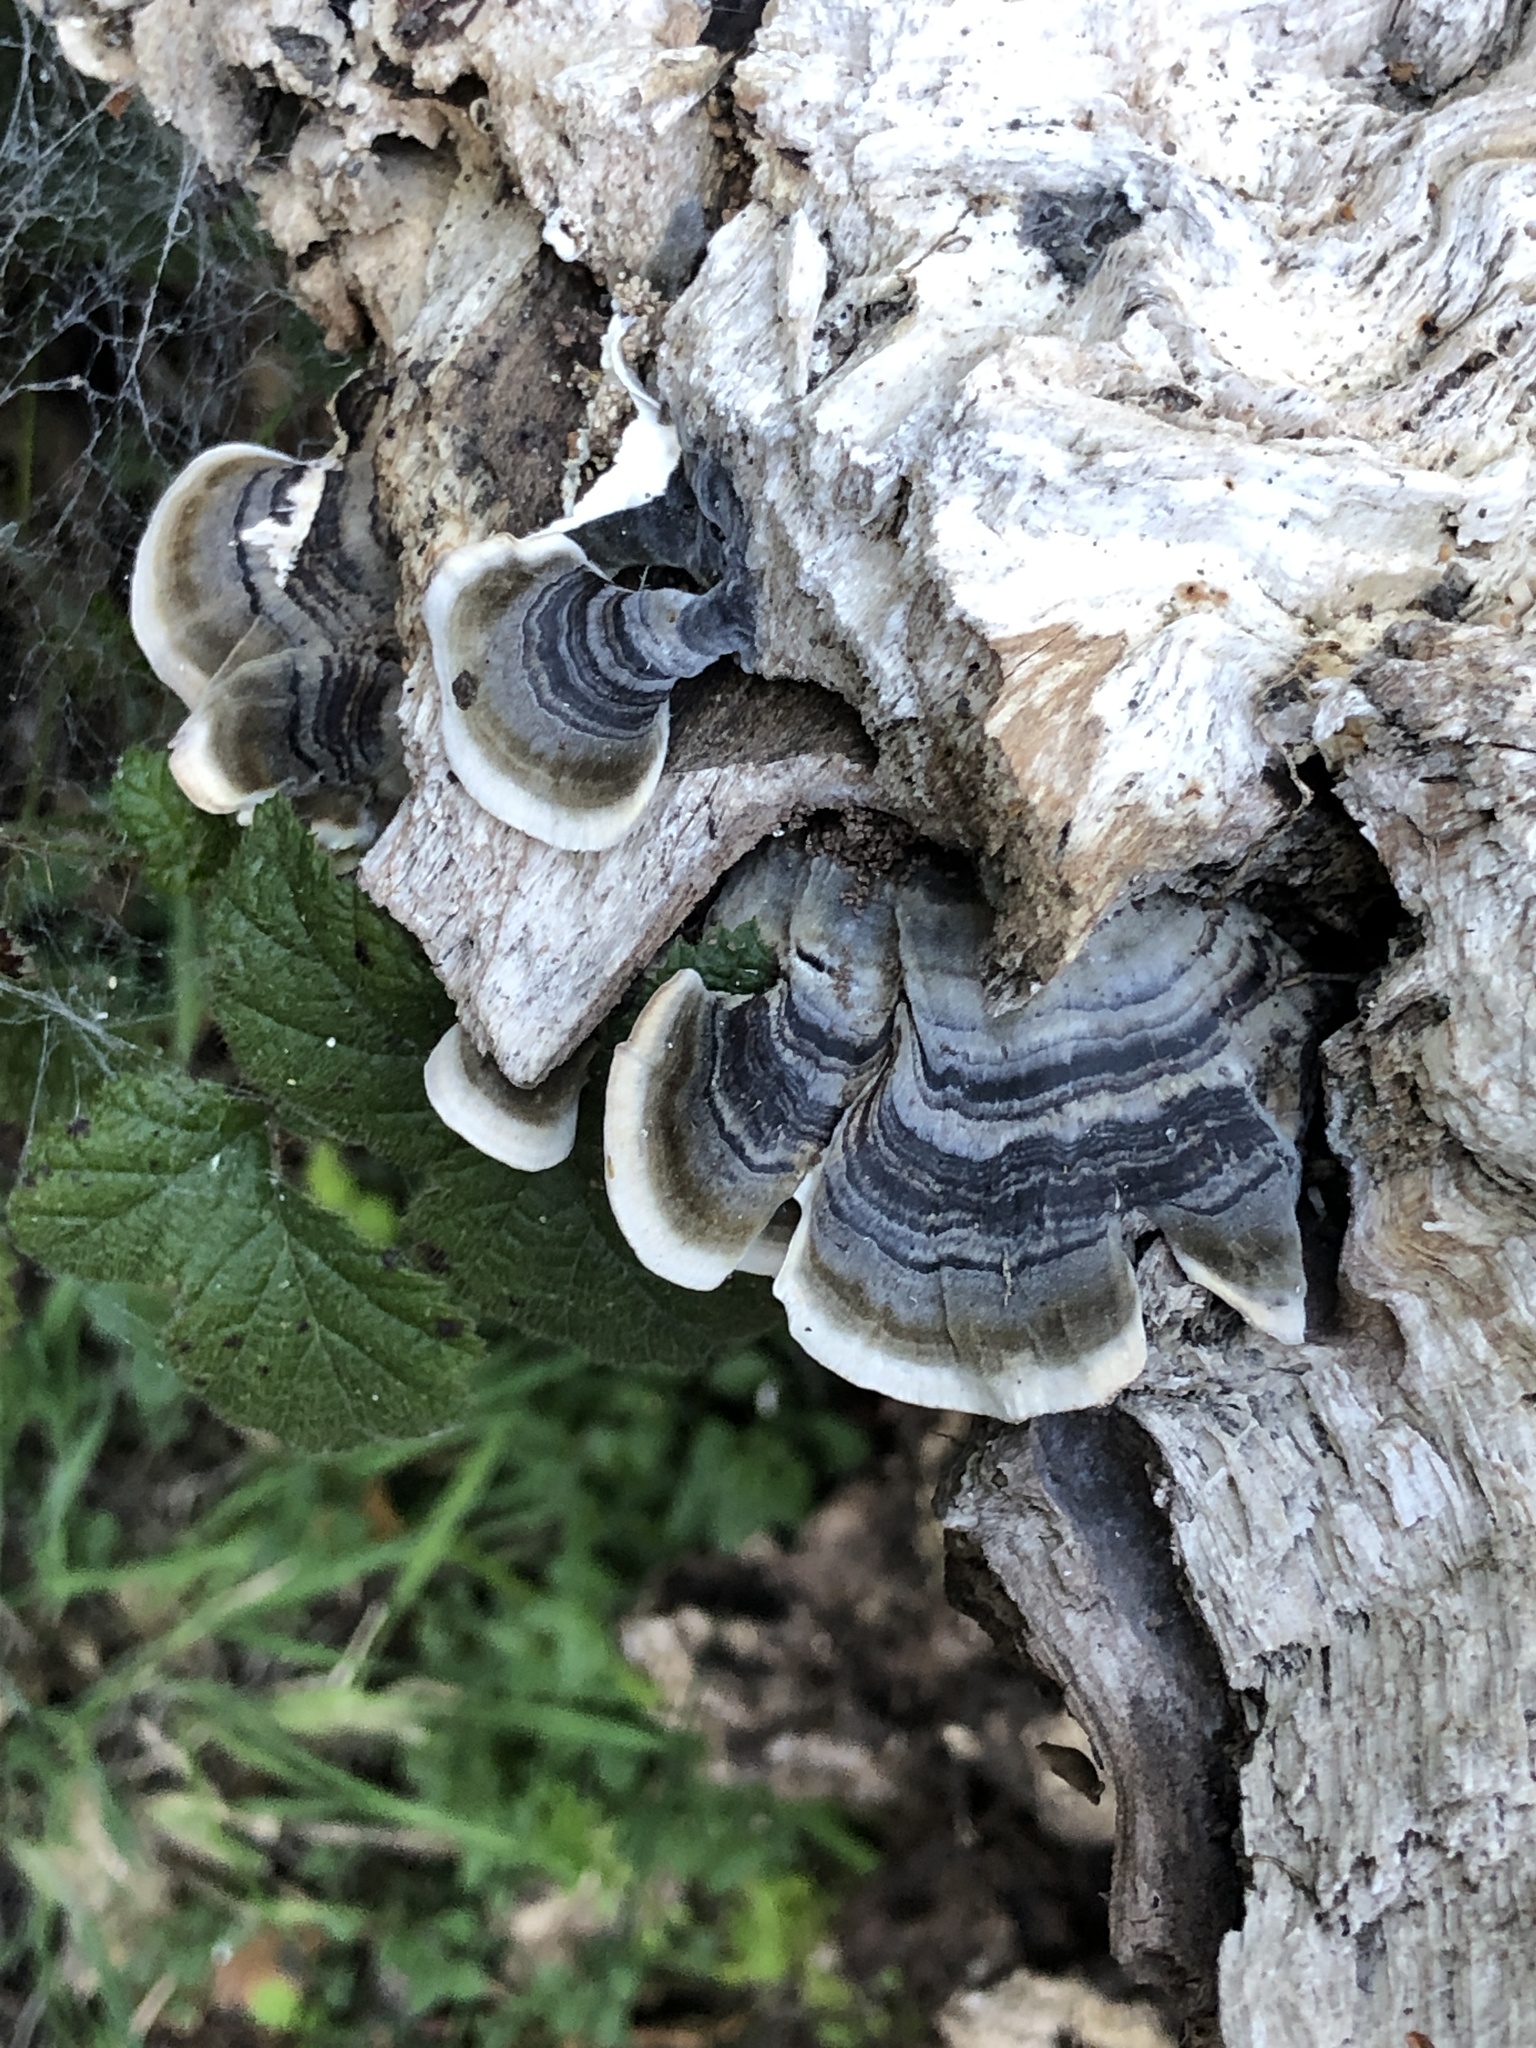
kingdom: Fungi
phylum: Basidiomycota
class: Agaricomycetes
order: Polyporales
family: Polyporaceae
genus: Trametes
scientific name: Trametes versicolor
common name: Turkeytail
